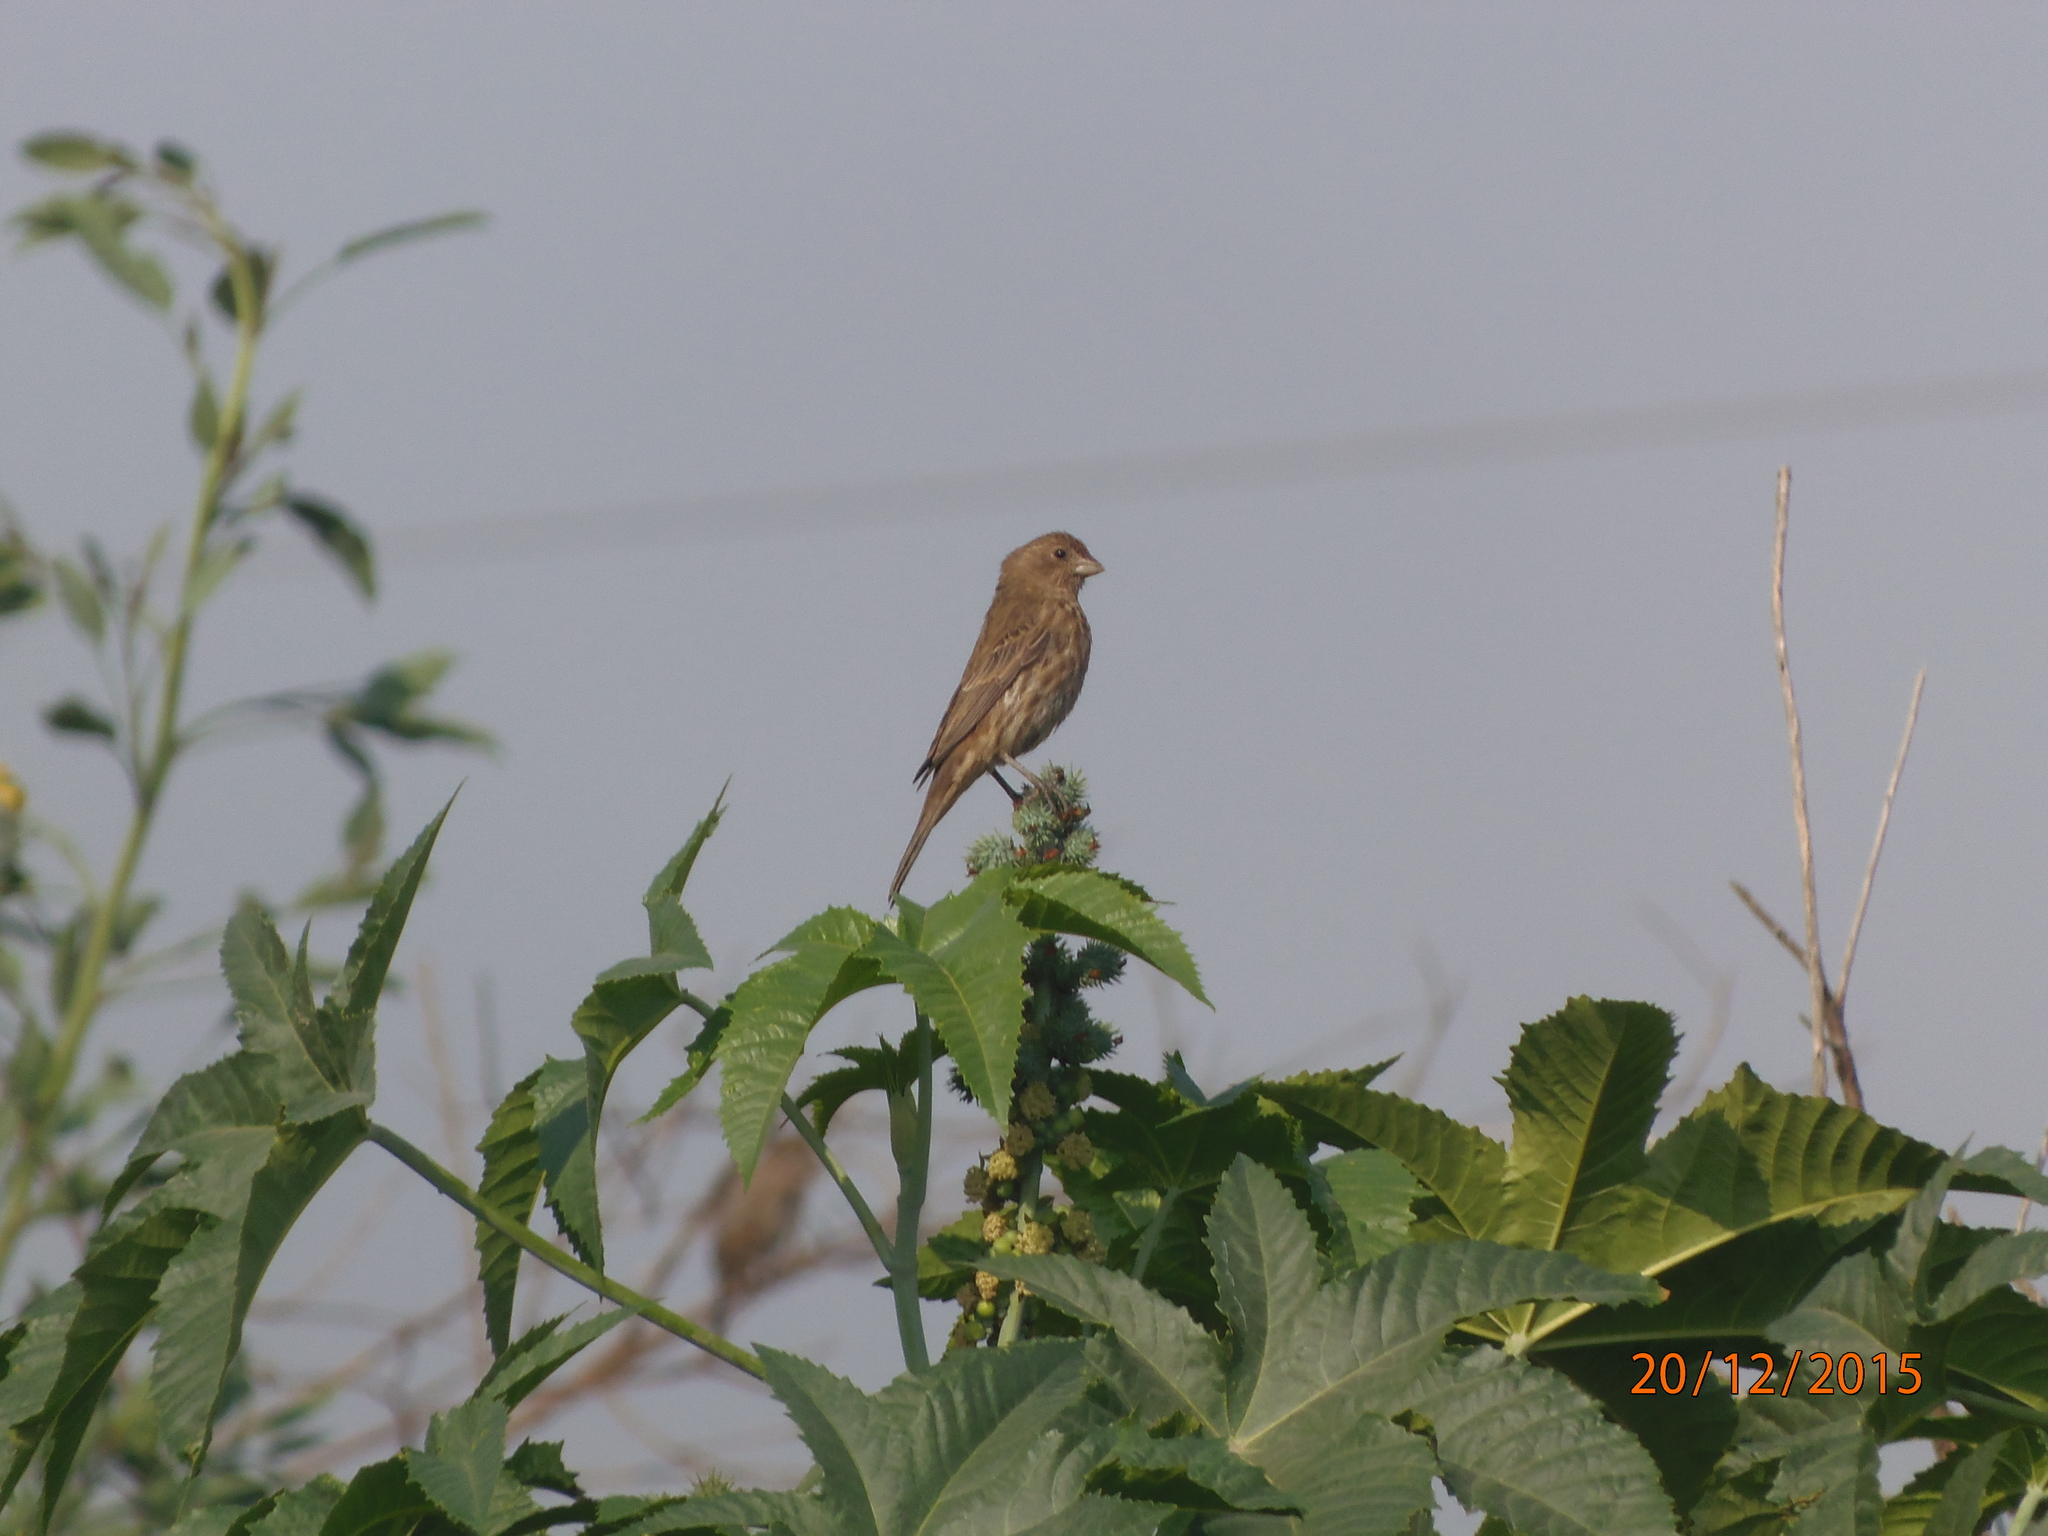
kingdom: Animalia
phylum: Chordata
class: Aves
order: Passeriformes
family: Fringillidae
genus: Haemorhous
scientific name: Haemorhous mexicanus
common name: House finch
